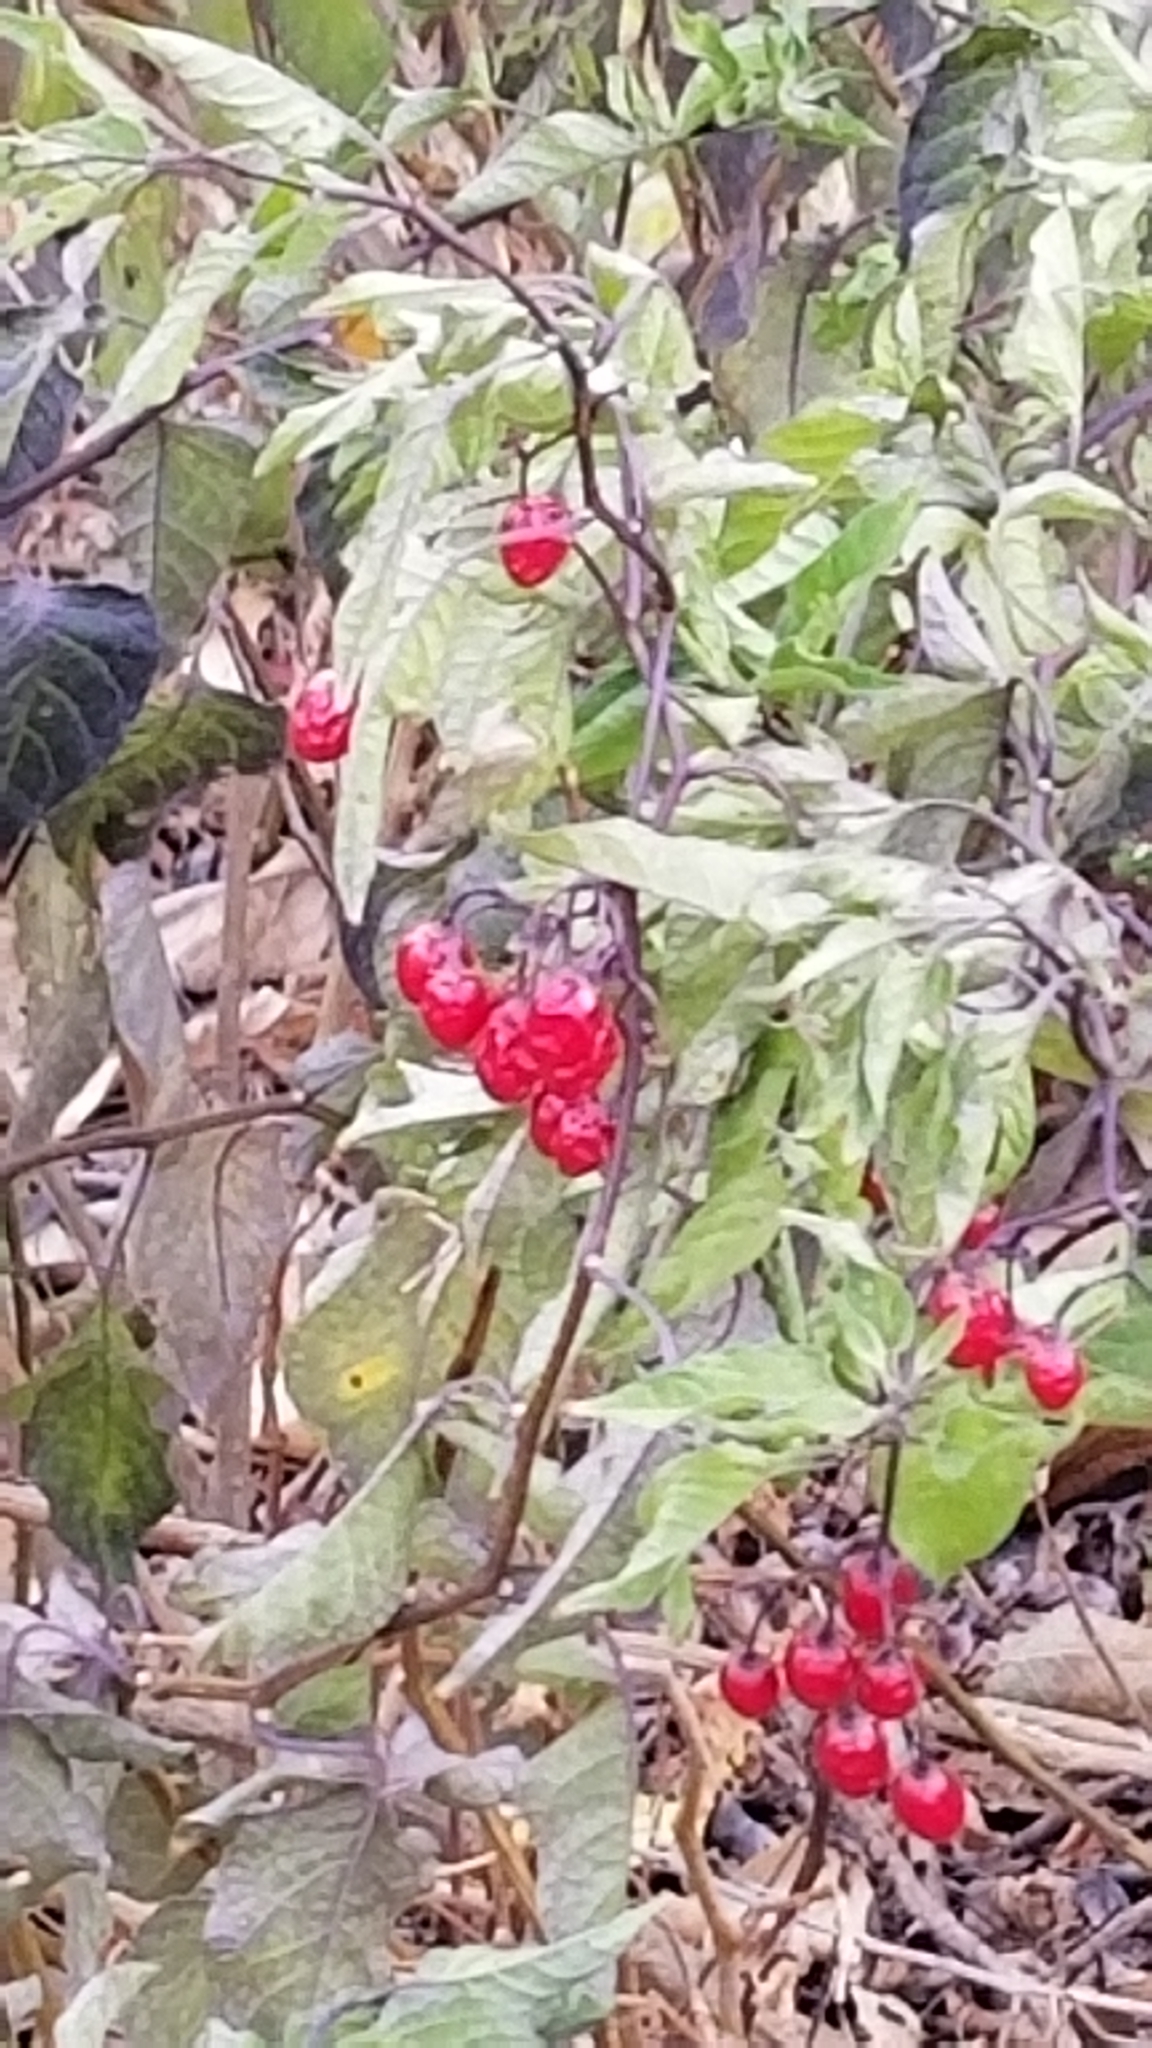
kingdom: Plantae
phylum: Tracheophyta
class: Magnoliopsida
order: Solanales
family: Solanaceae
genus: Solanum
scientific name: Solanum dulcamara
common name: Climbing nightshade
